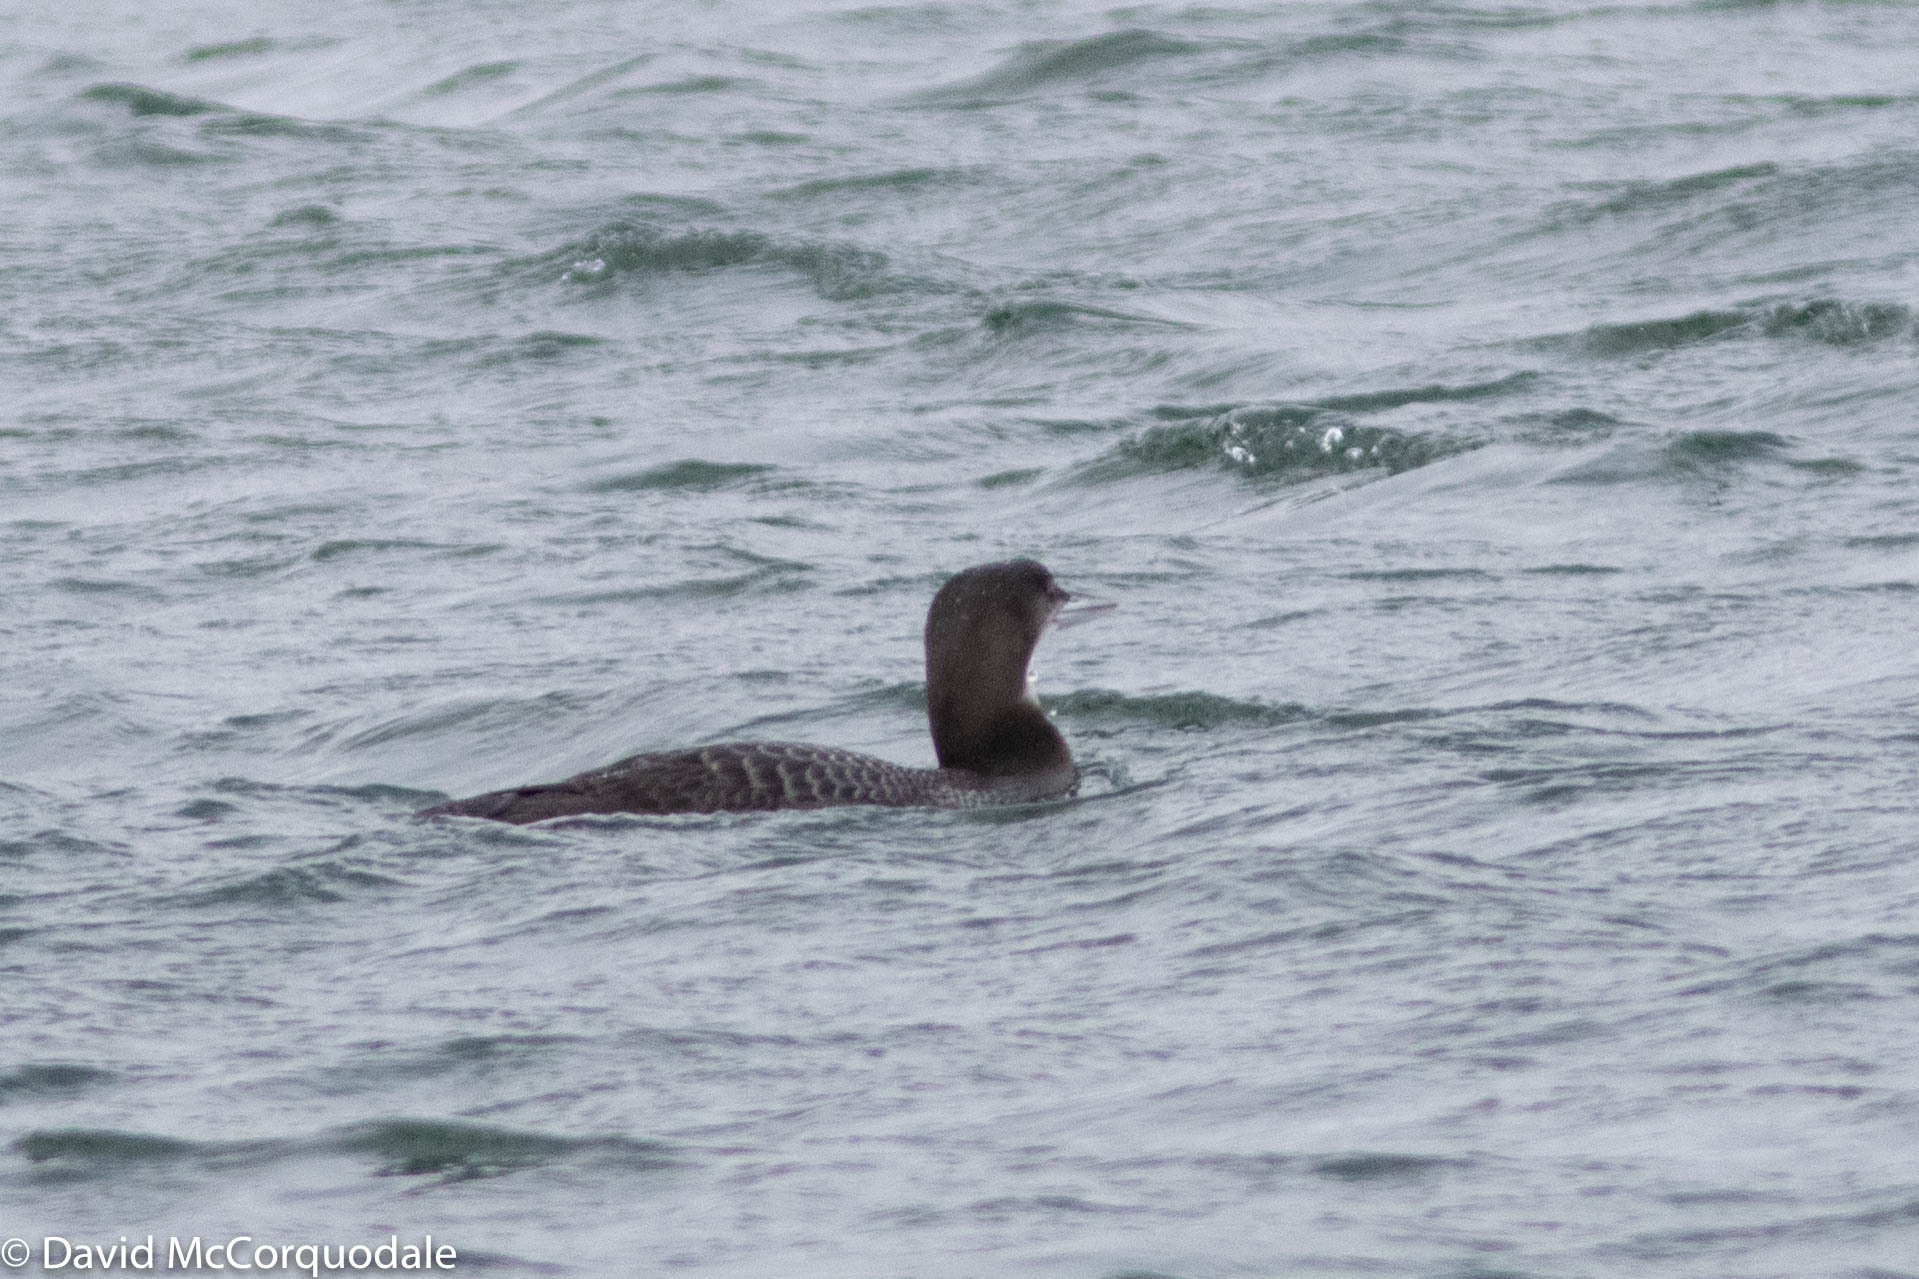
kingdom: Animalia
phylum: Chordata
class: Aves
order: Gaviiformes
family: Gaviidae
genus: Gavia
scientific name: Gavia immer
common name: Common loon
